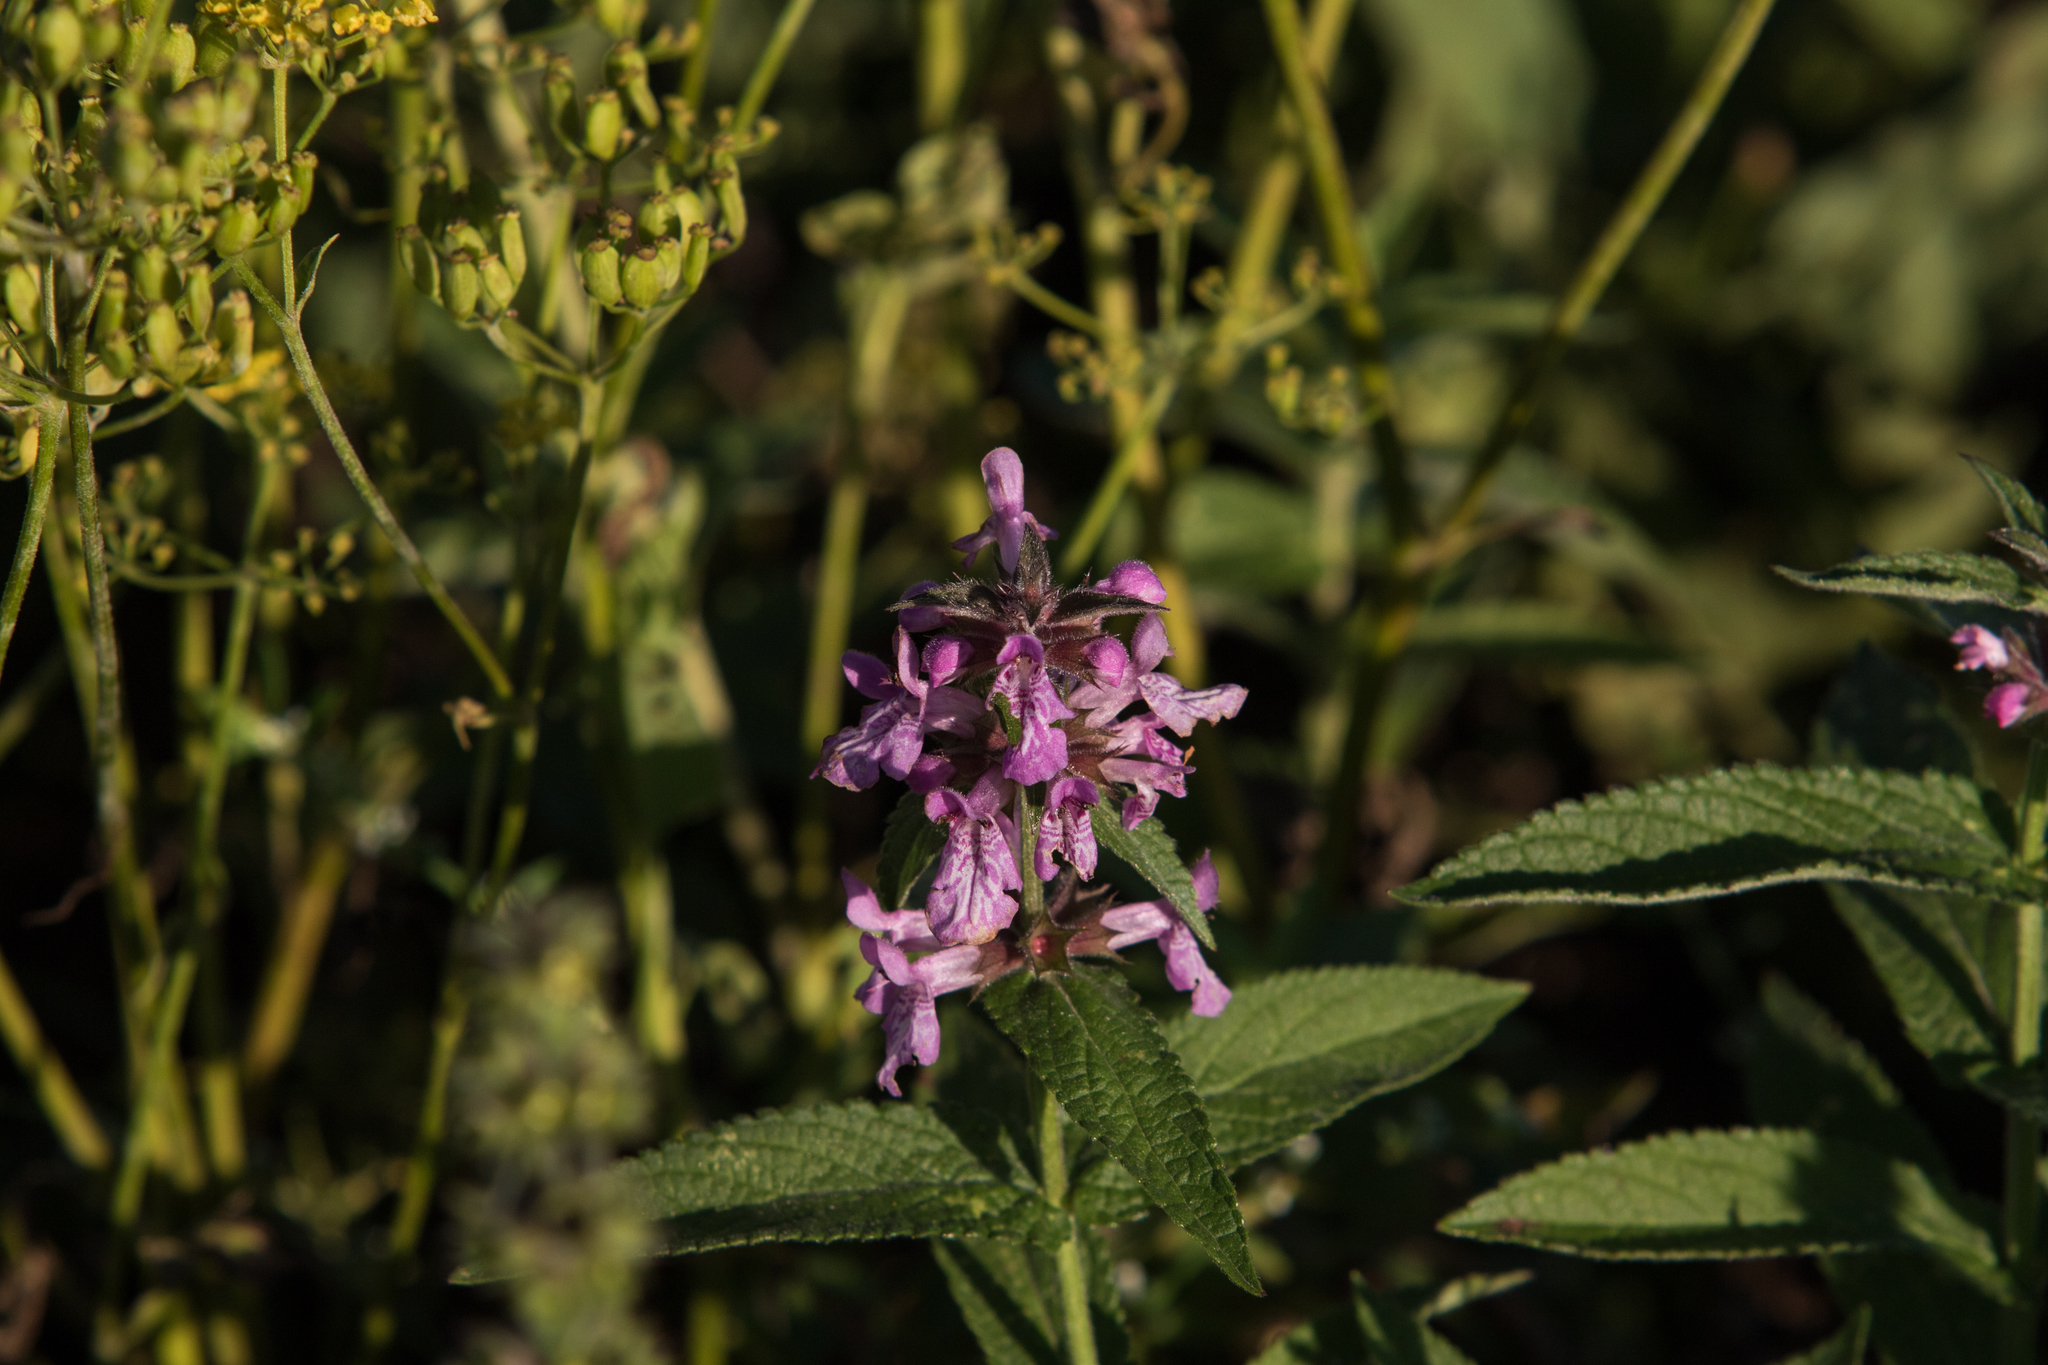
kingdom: Plantae
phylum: Tracheophyta
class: Magnoliopsida
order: Lamiales
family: Lamiaceae
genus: Stachys
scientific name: Stachys palustris
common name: Marsh woundwort
